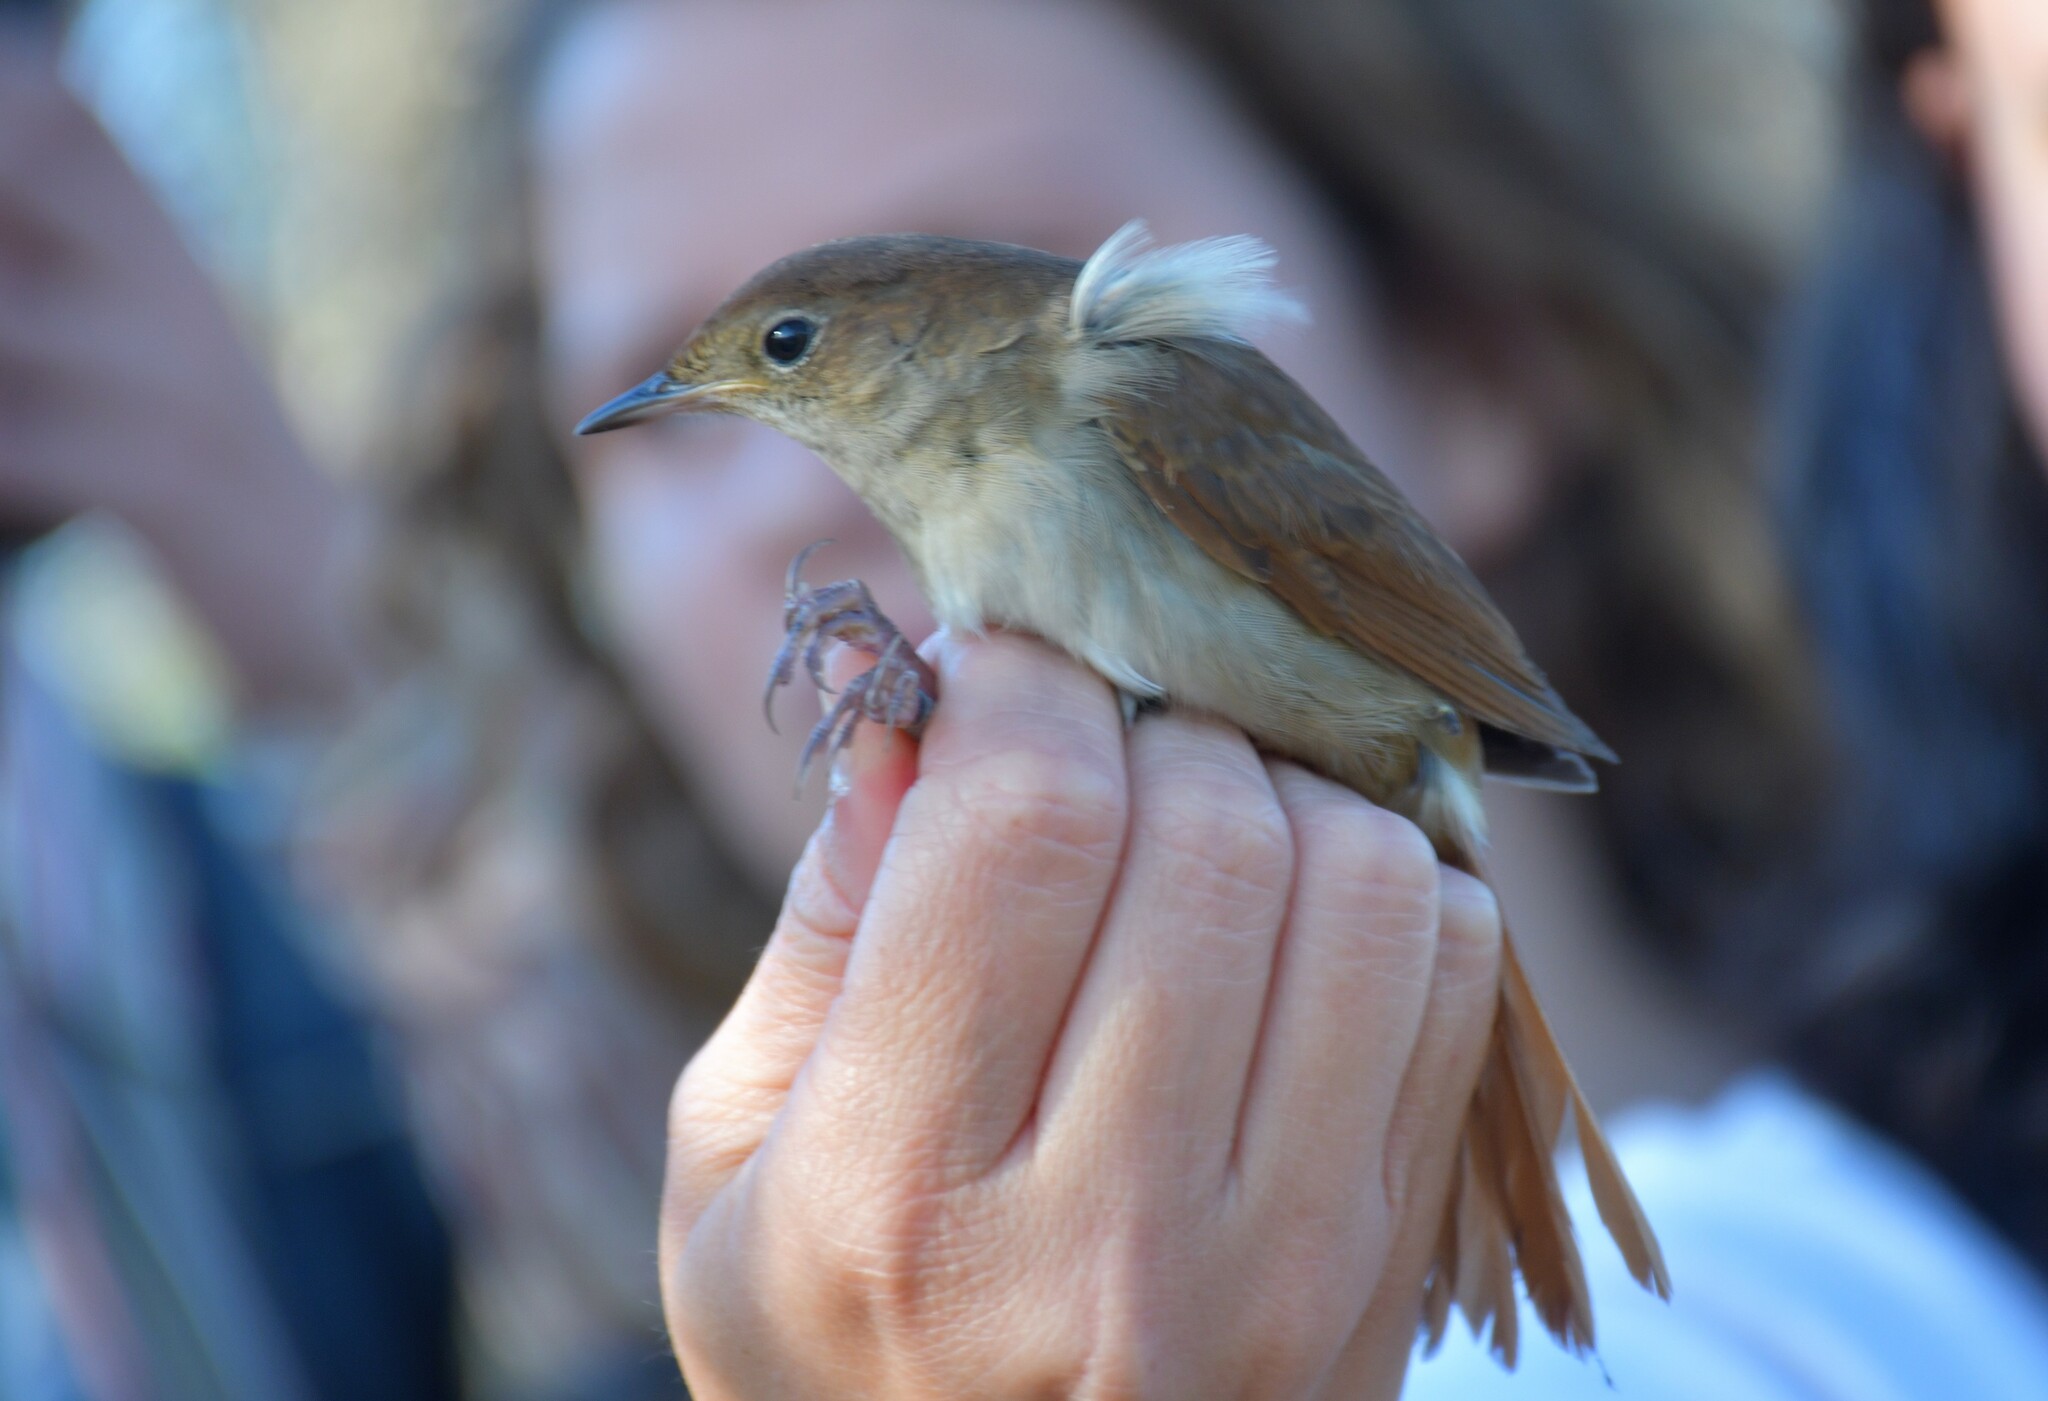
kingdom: Animalia
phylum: Chordata
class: Aves
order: Passeriformes
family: Muscicapidae
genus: Luscinia
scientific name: Luscinia megarhynchos
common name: Common nightingale
